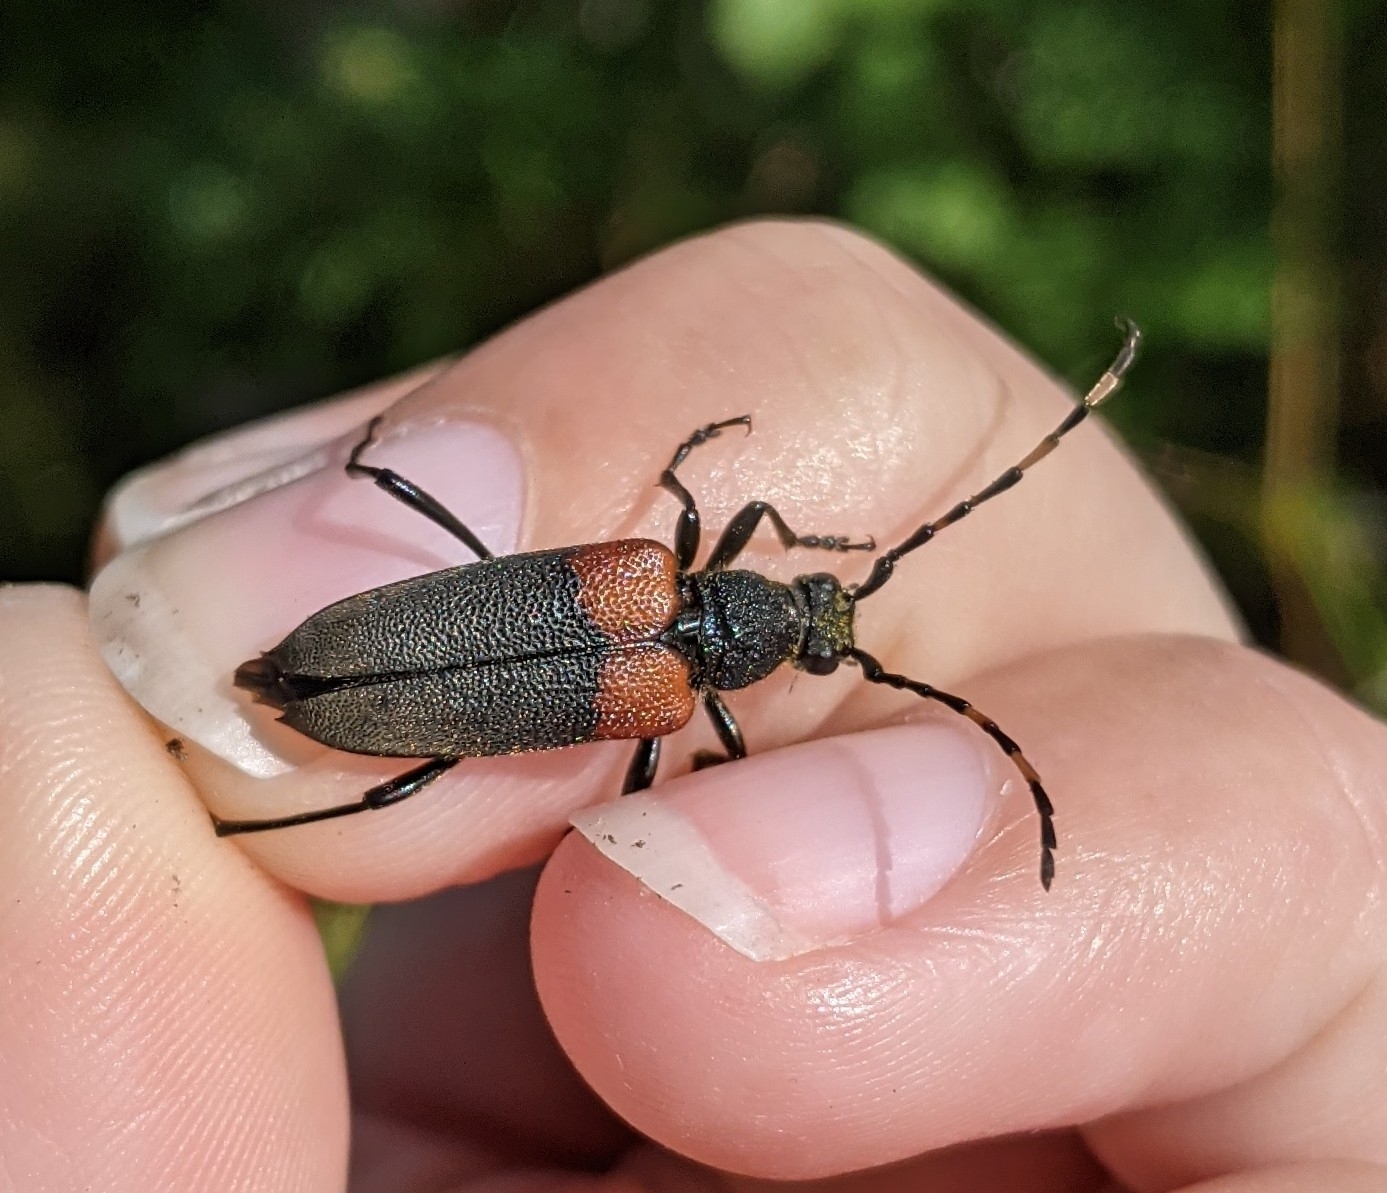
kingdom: Animalia
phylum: Arthropoda
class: Insecta
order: Coleoptera
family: Cerambycidae
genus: Stictoleptura
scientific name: Stictoleptura canadensis
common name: Red-shouldered pine borer
